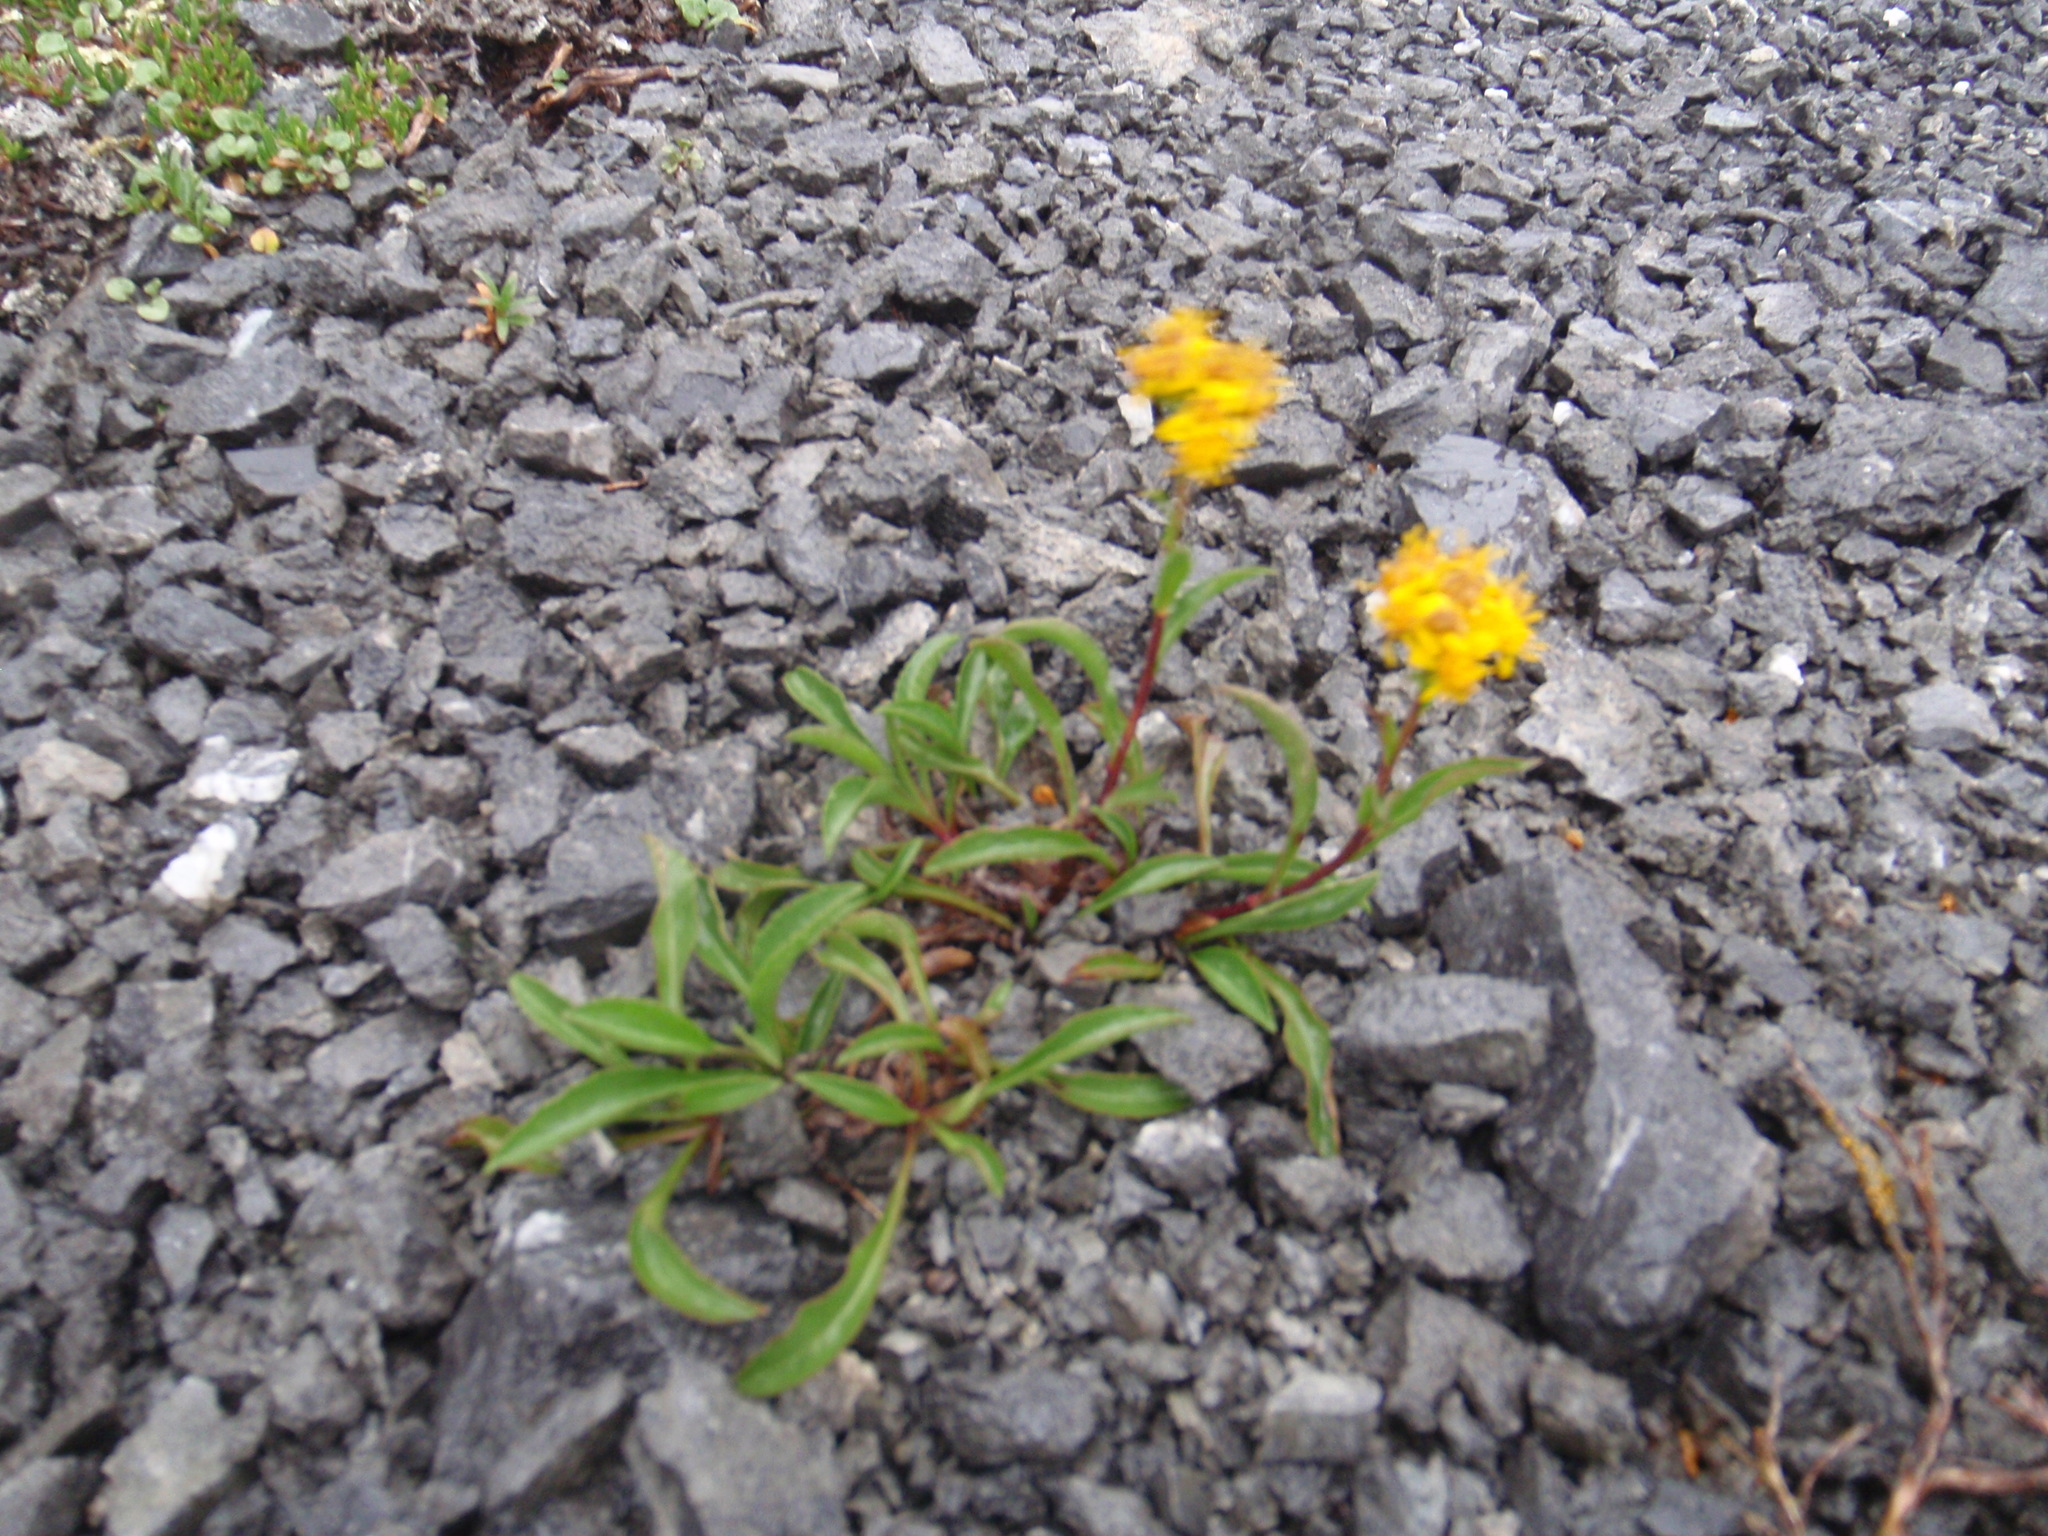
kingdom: Plantae
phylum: Tracheophyta
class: Magnoliopsida
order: Asterales
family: Asteraceae
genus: Solidago
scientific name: Solidago multiradiata
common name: Northern goldenrod
